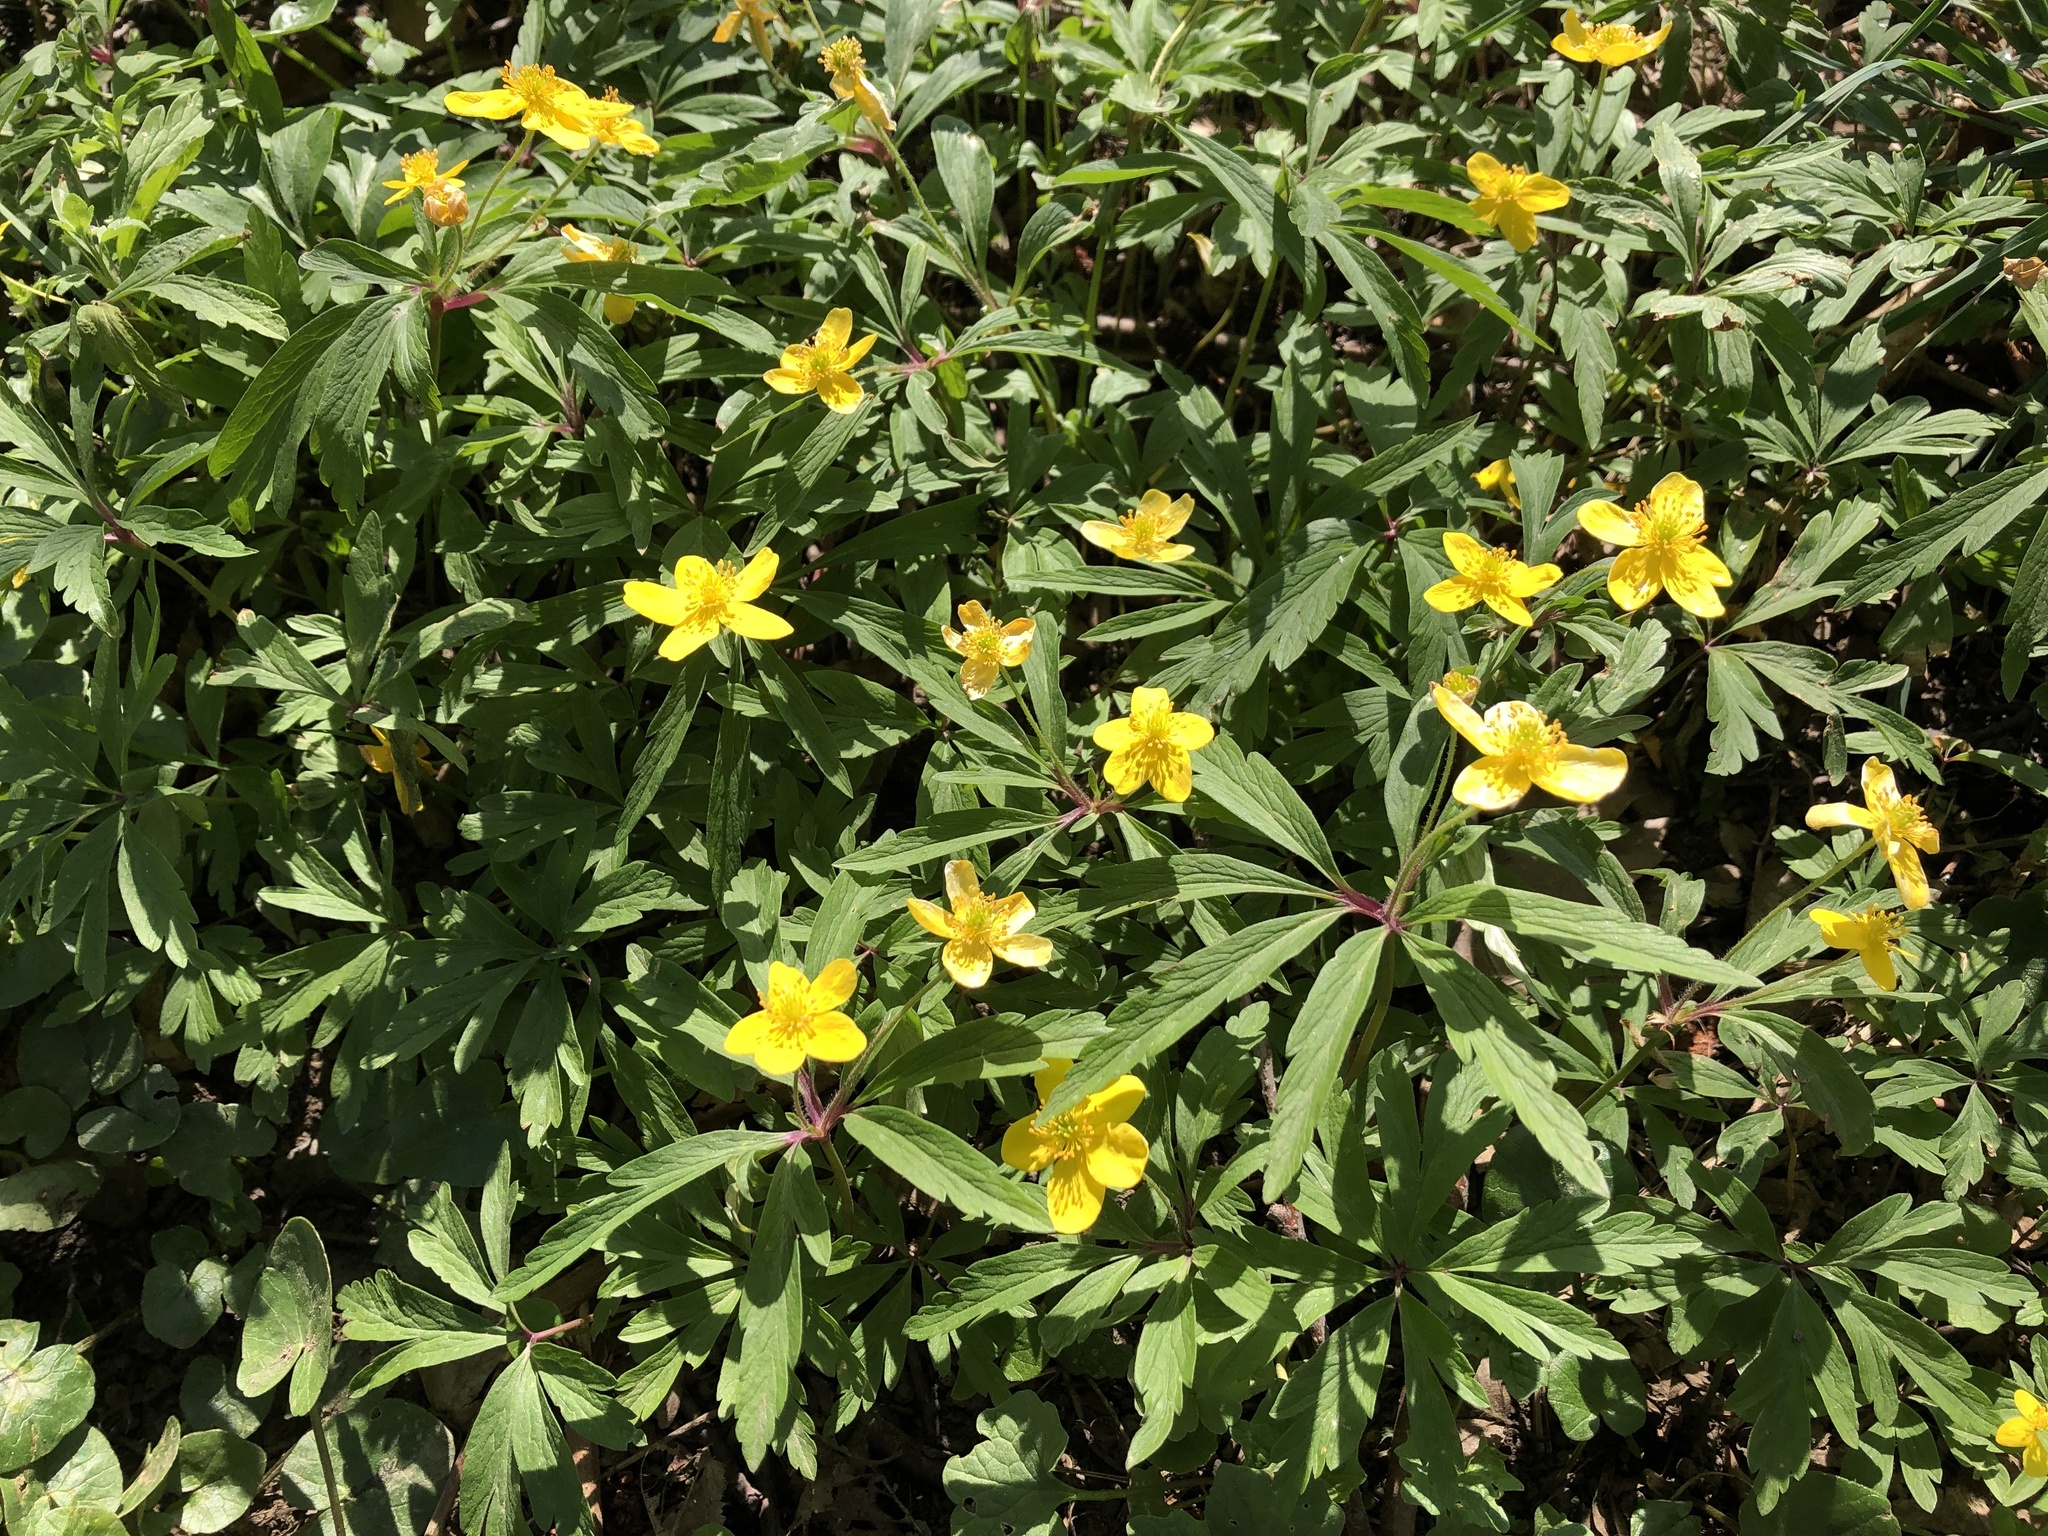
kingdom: Plantae
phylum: Tracheophyta
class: Magnoliopsida
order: Ranunculales
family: Ranunculaceae
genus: Anemone
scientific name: Anemone ranunculoides
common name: Yellow anemone
